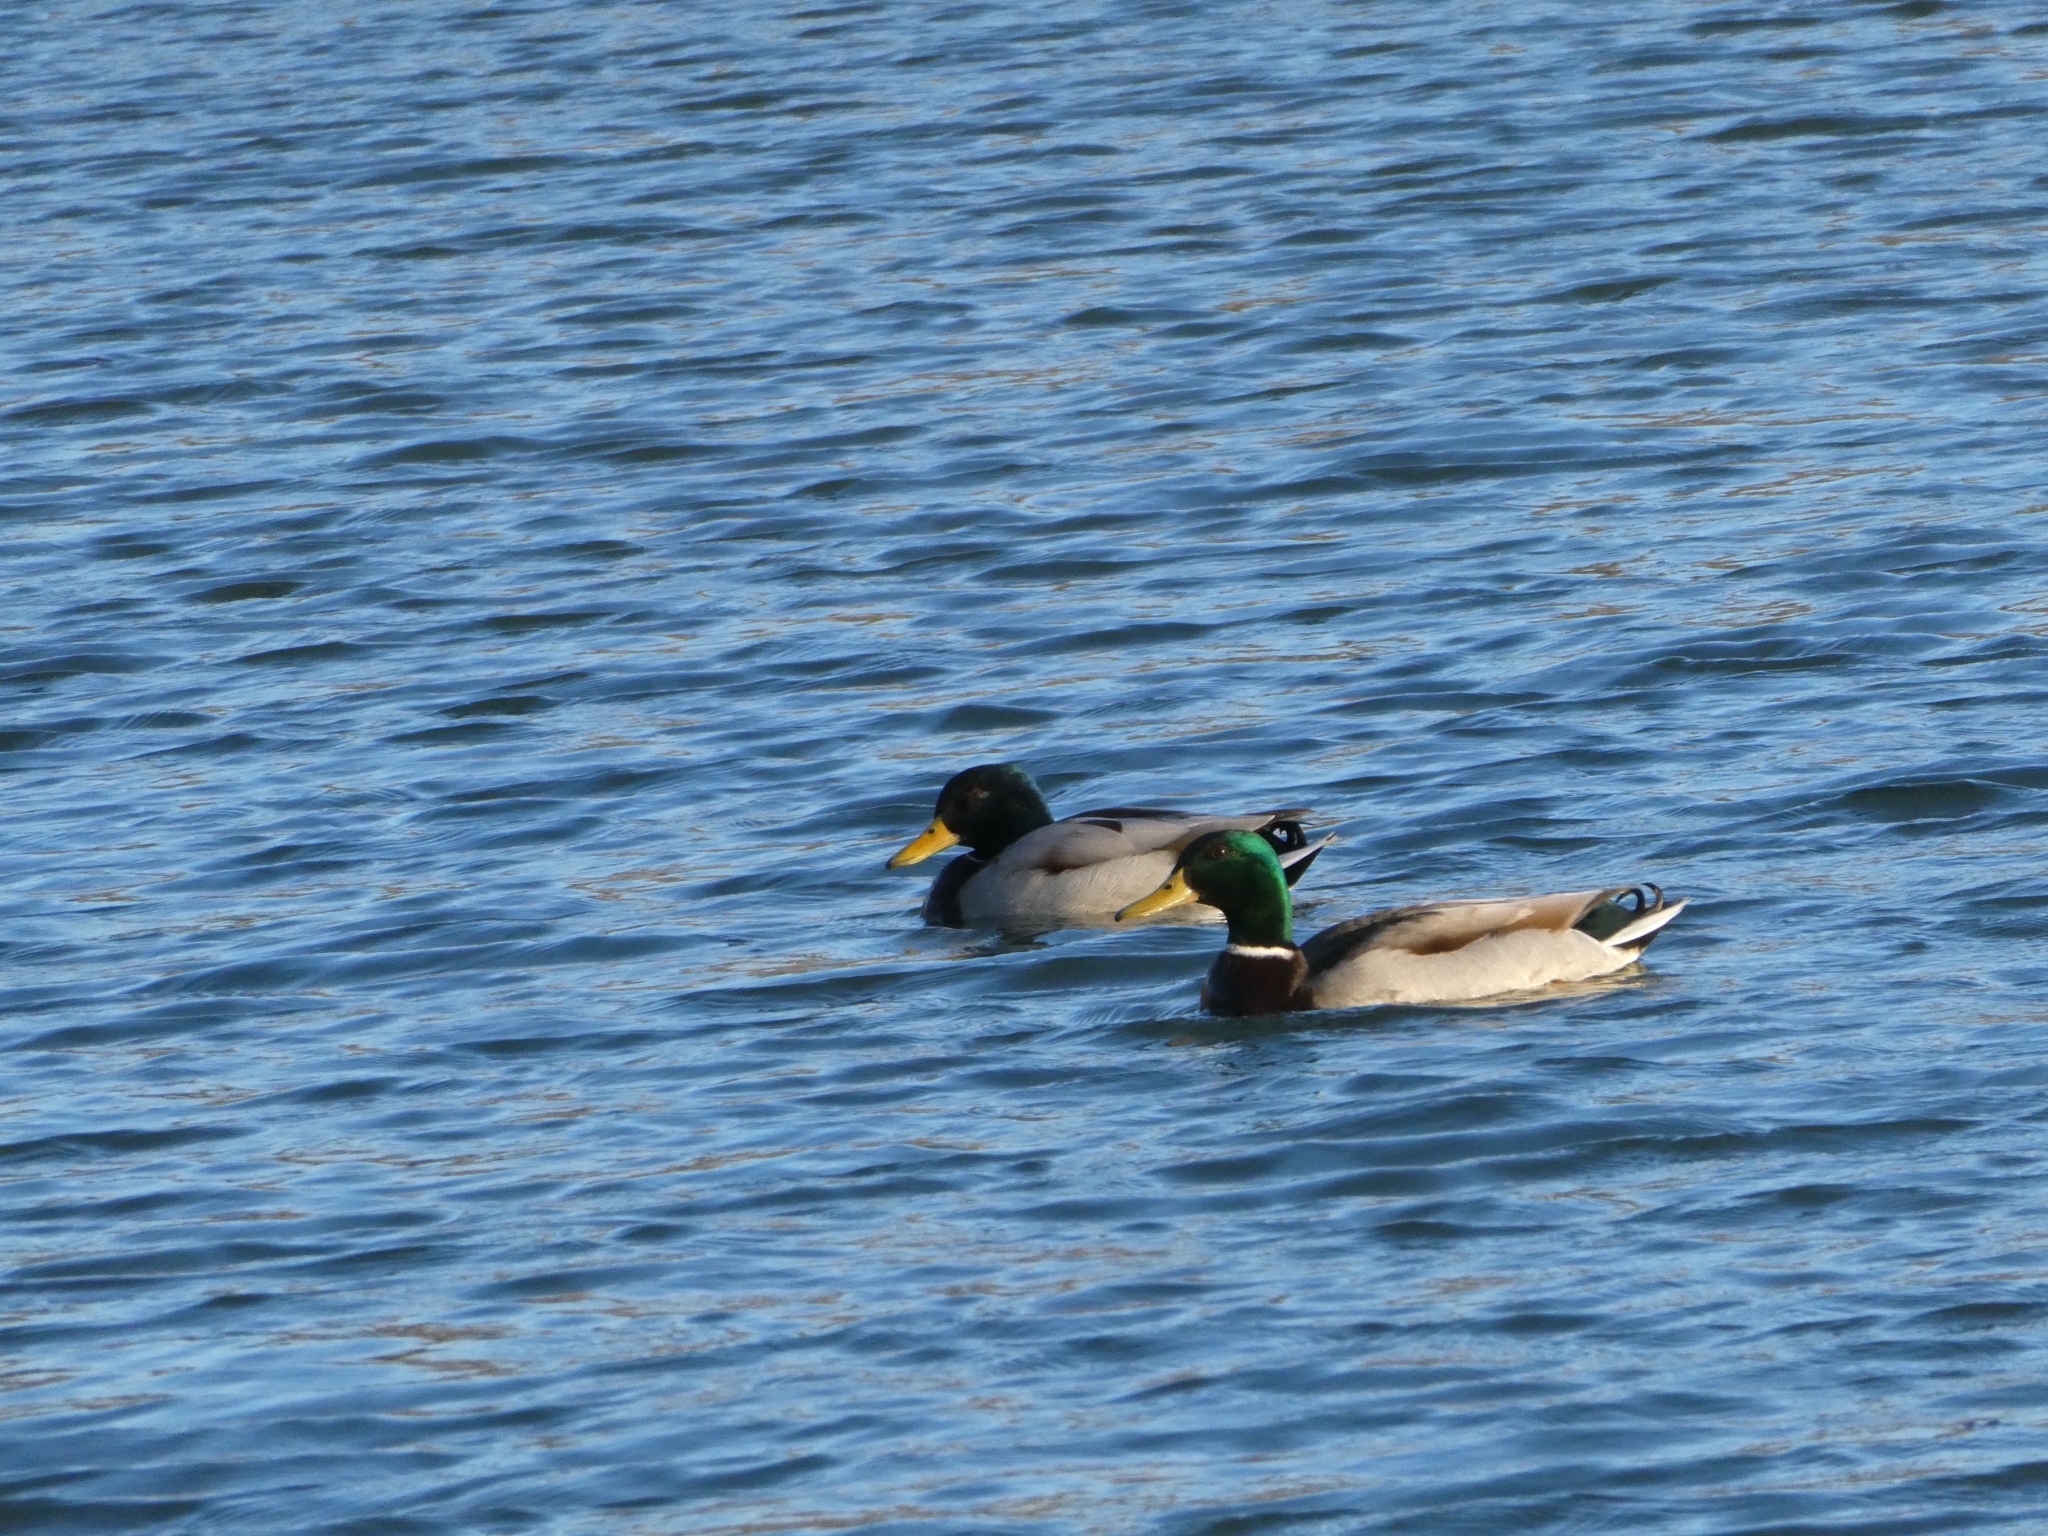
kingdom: Animalia
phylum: Chordata
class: Aves
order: Anseriformes
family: Anatidae
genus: Anas
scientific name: Anas platyrhynchos
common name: Mallard
